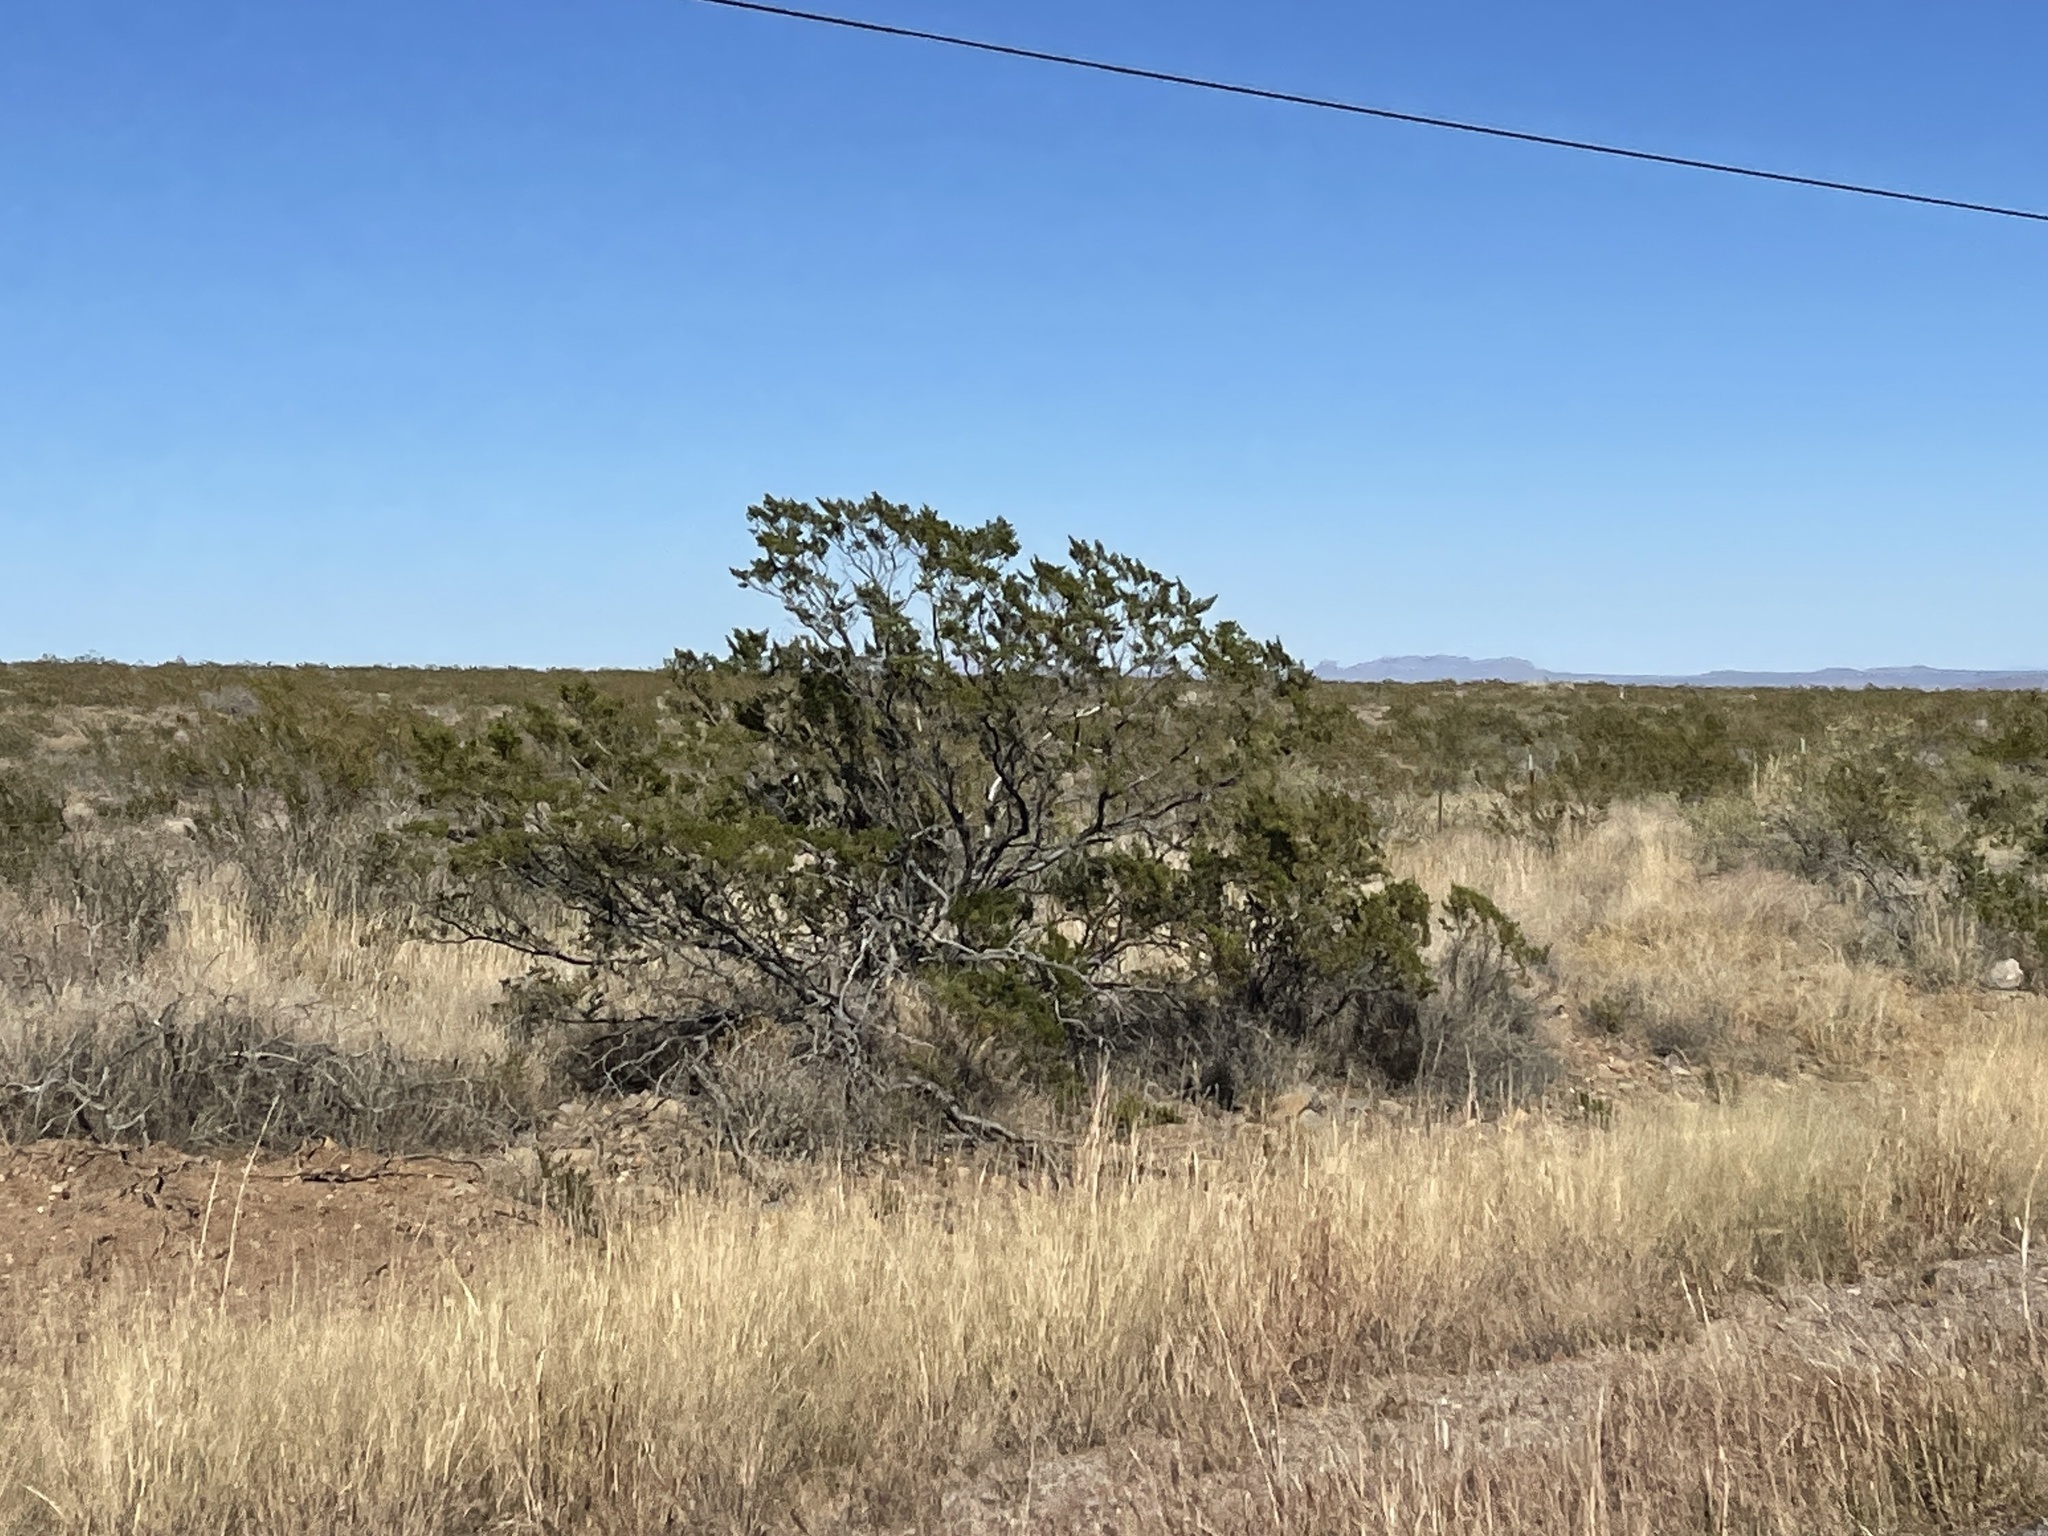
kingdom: Plantae
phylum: Tracheophyta
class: Magnoliopsida
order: Zygophyllales
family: Zygophyllaceae
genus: Larrea
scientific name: Larrea tridentata
